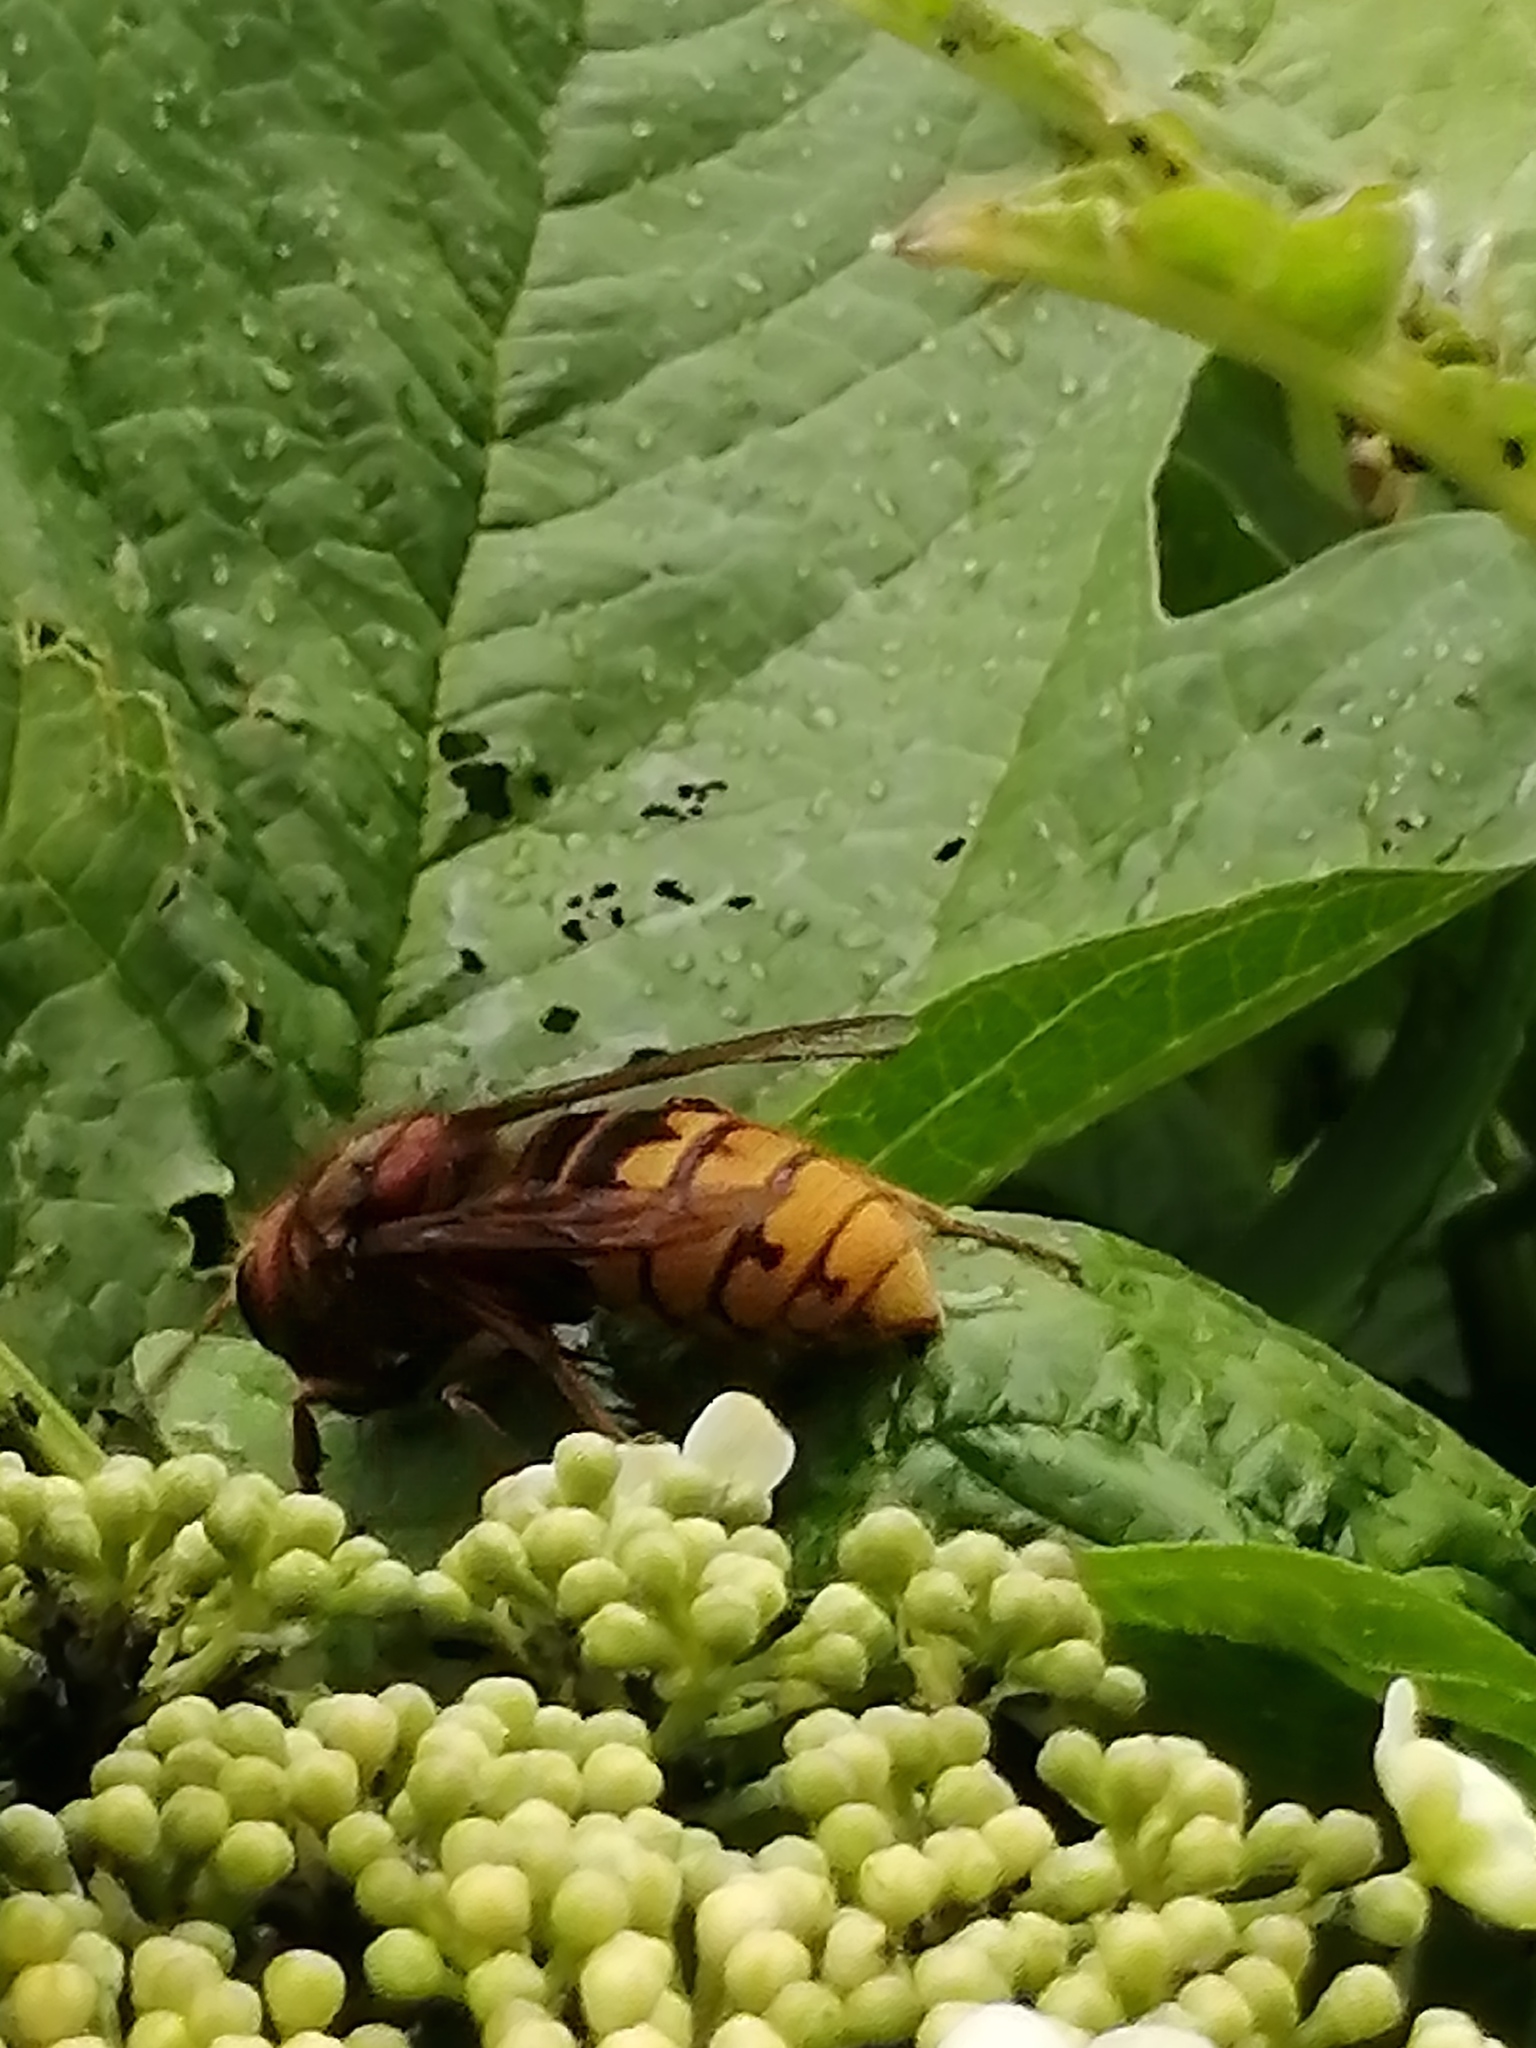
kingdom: Animalia
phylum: Arthropoda
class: Insecta
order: Hymenoptera
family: Vespidae
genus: Vespa
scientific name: Vespa crabro
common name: Hornet
